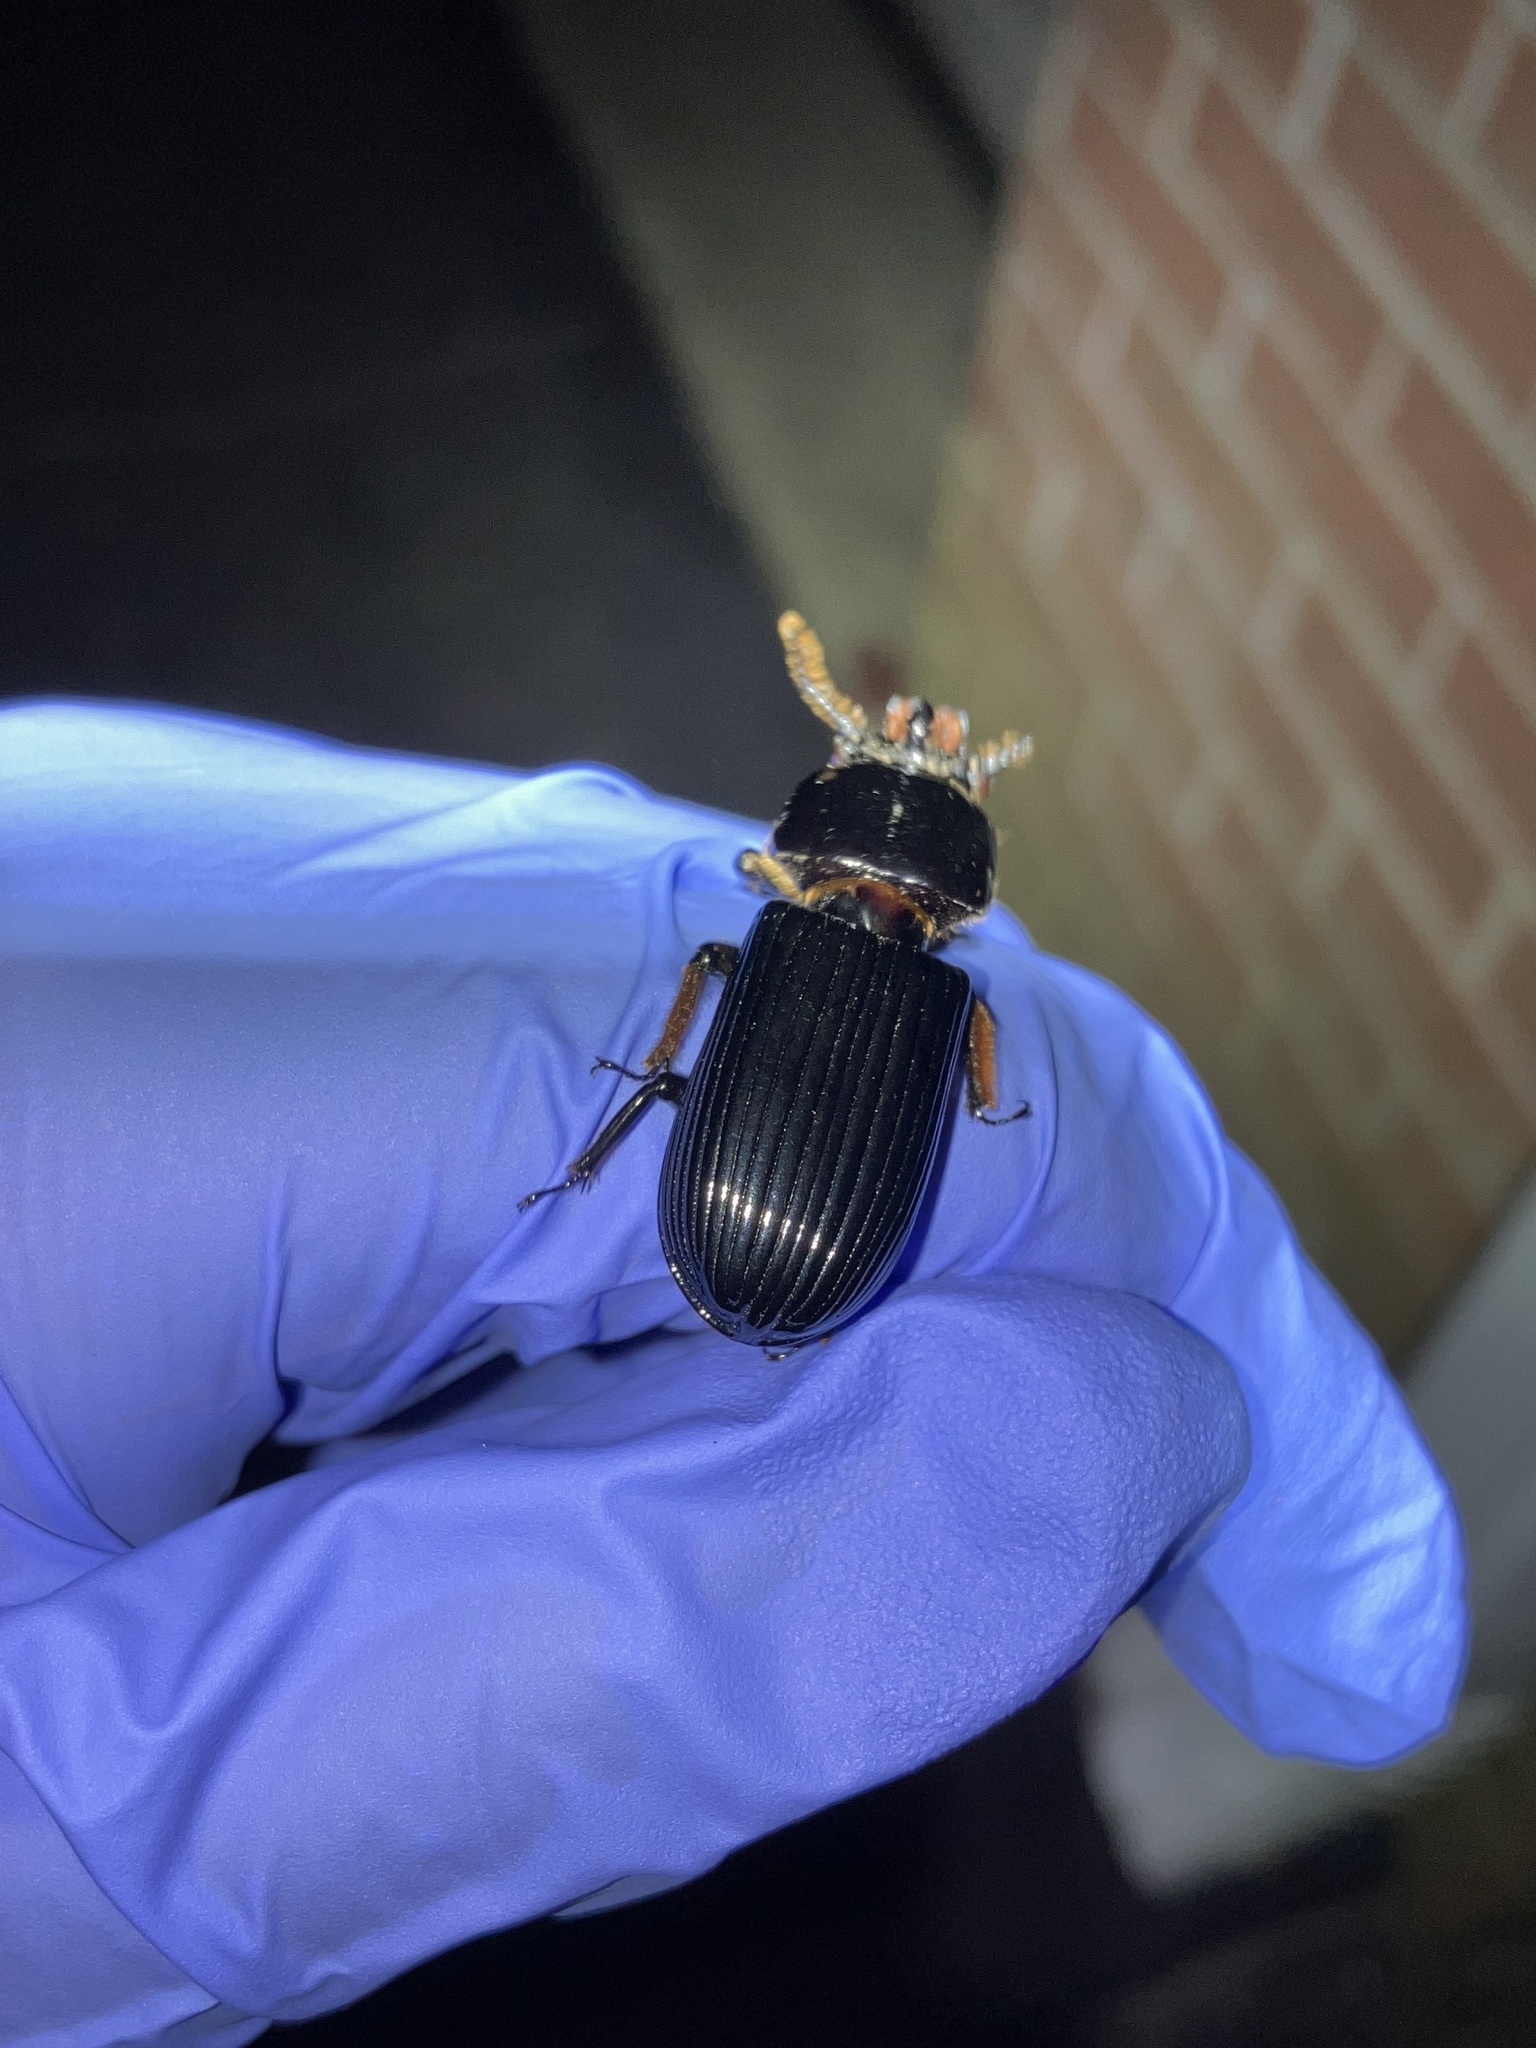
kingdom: Animalia
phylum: Arthropoda
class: Insecta
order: Coleoptera
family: Passalidae
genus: Odontotaenius
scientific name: Odontotaenius disjunctus
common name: Patent leather beetle
